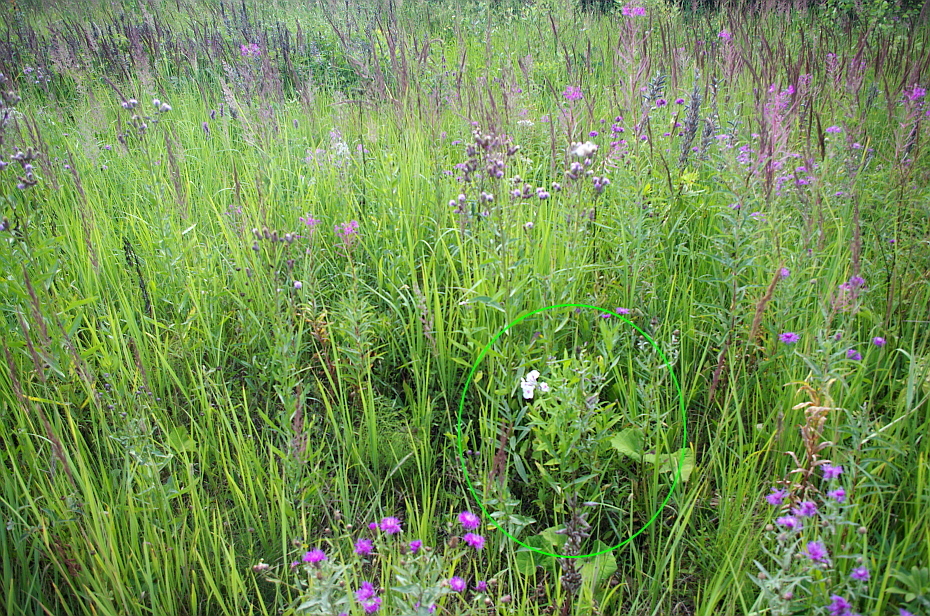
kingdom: Plantae
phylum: Tracheophyta
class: Magnoliopsida
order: Ericales
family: Polemoniaceae
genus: Phlox
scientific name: Phlox paniculata
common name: Fall phlox
